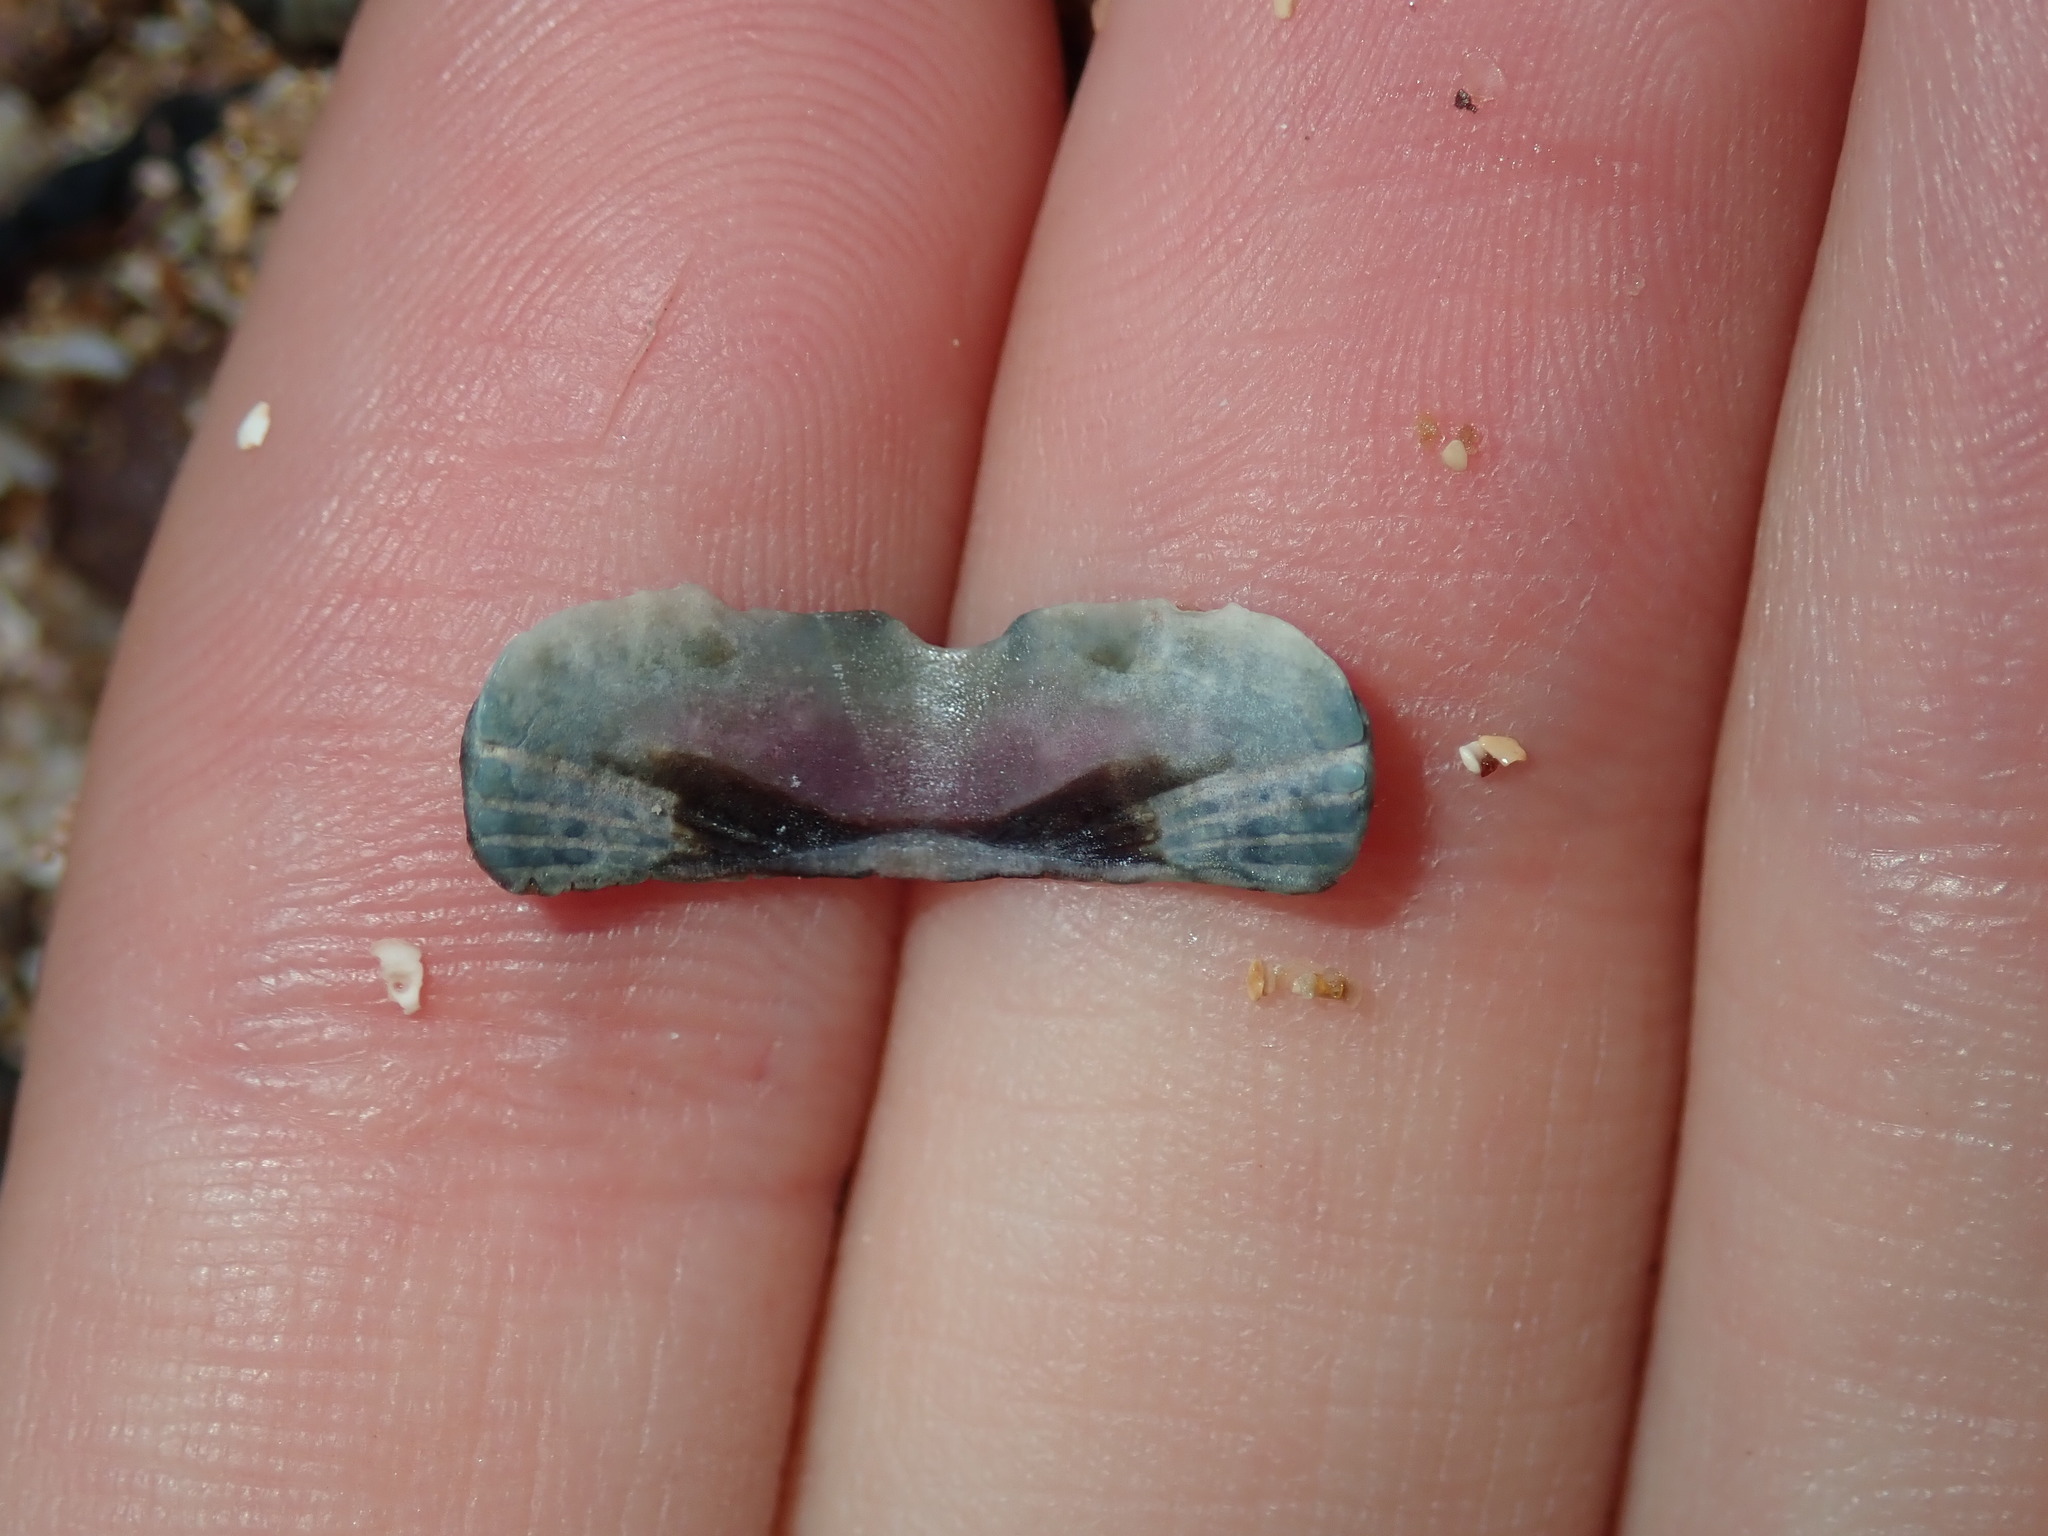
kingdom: Animalia
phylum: Mollusca
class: Polyplacophora
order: Chitonida
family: Ischnochitonidae
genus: Ischnochiton
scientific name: Ischnochiton australis
